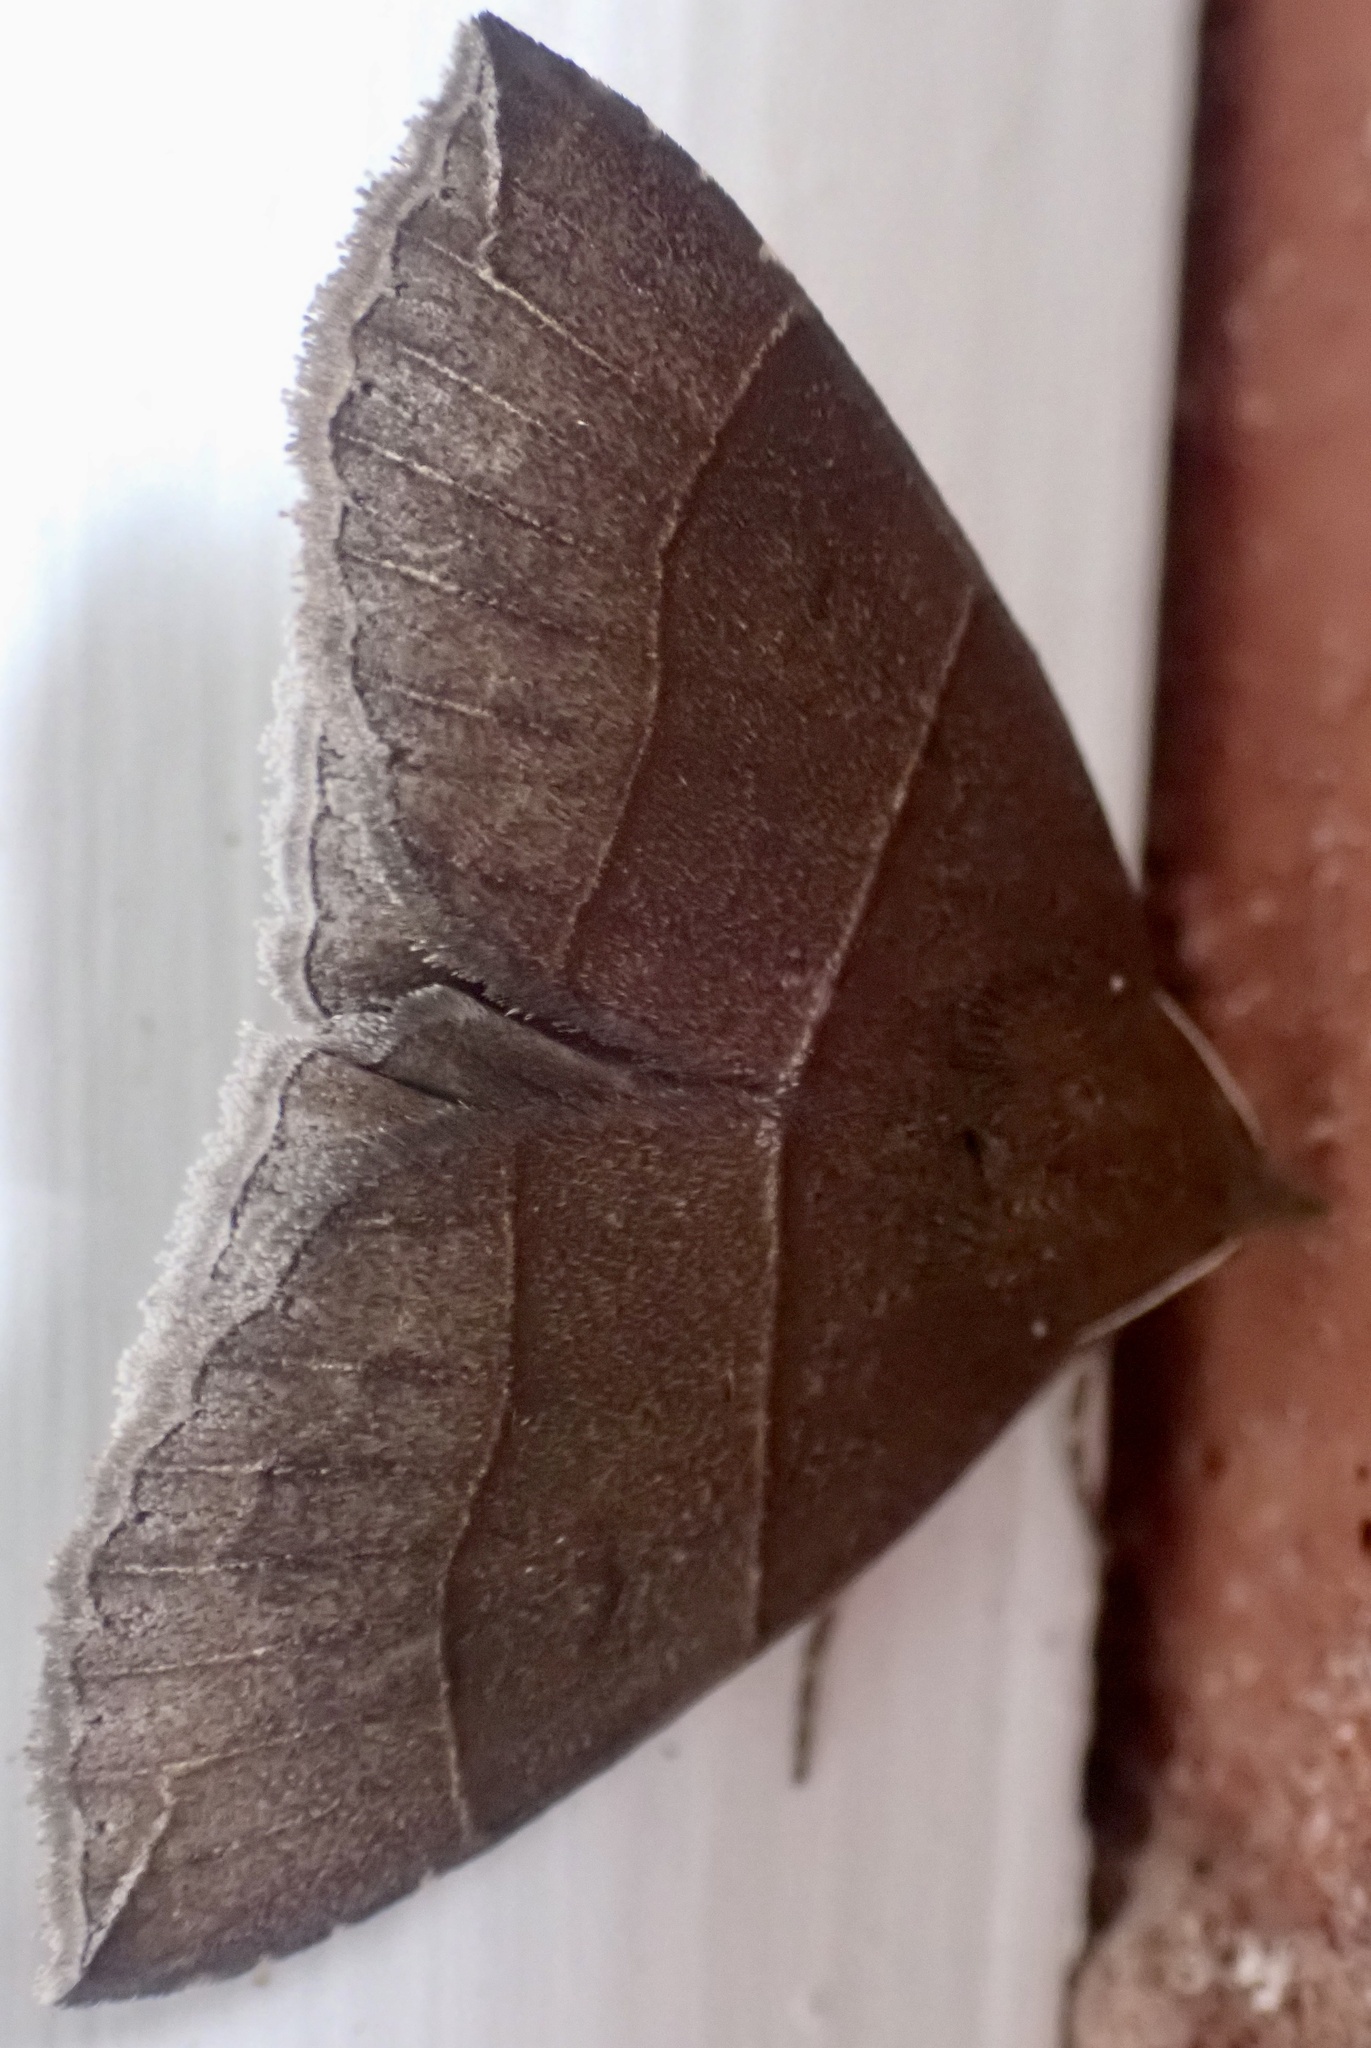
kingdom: Animalia
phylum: Arthropoda
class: Insecta
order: Lepidoptera
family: Erebidae
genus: Parallelia
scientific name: Parallelia bistriaris
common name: Maple looper moth
